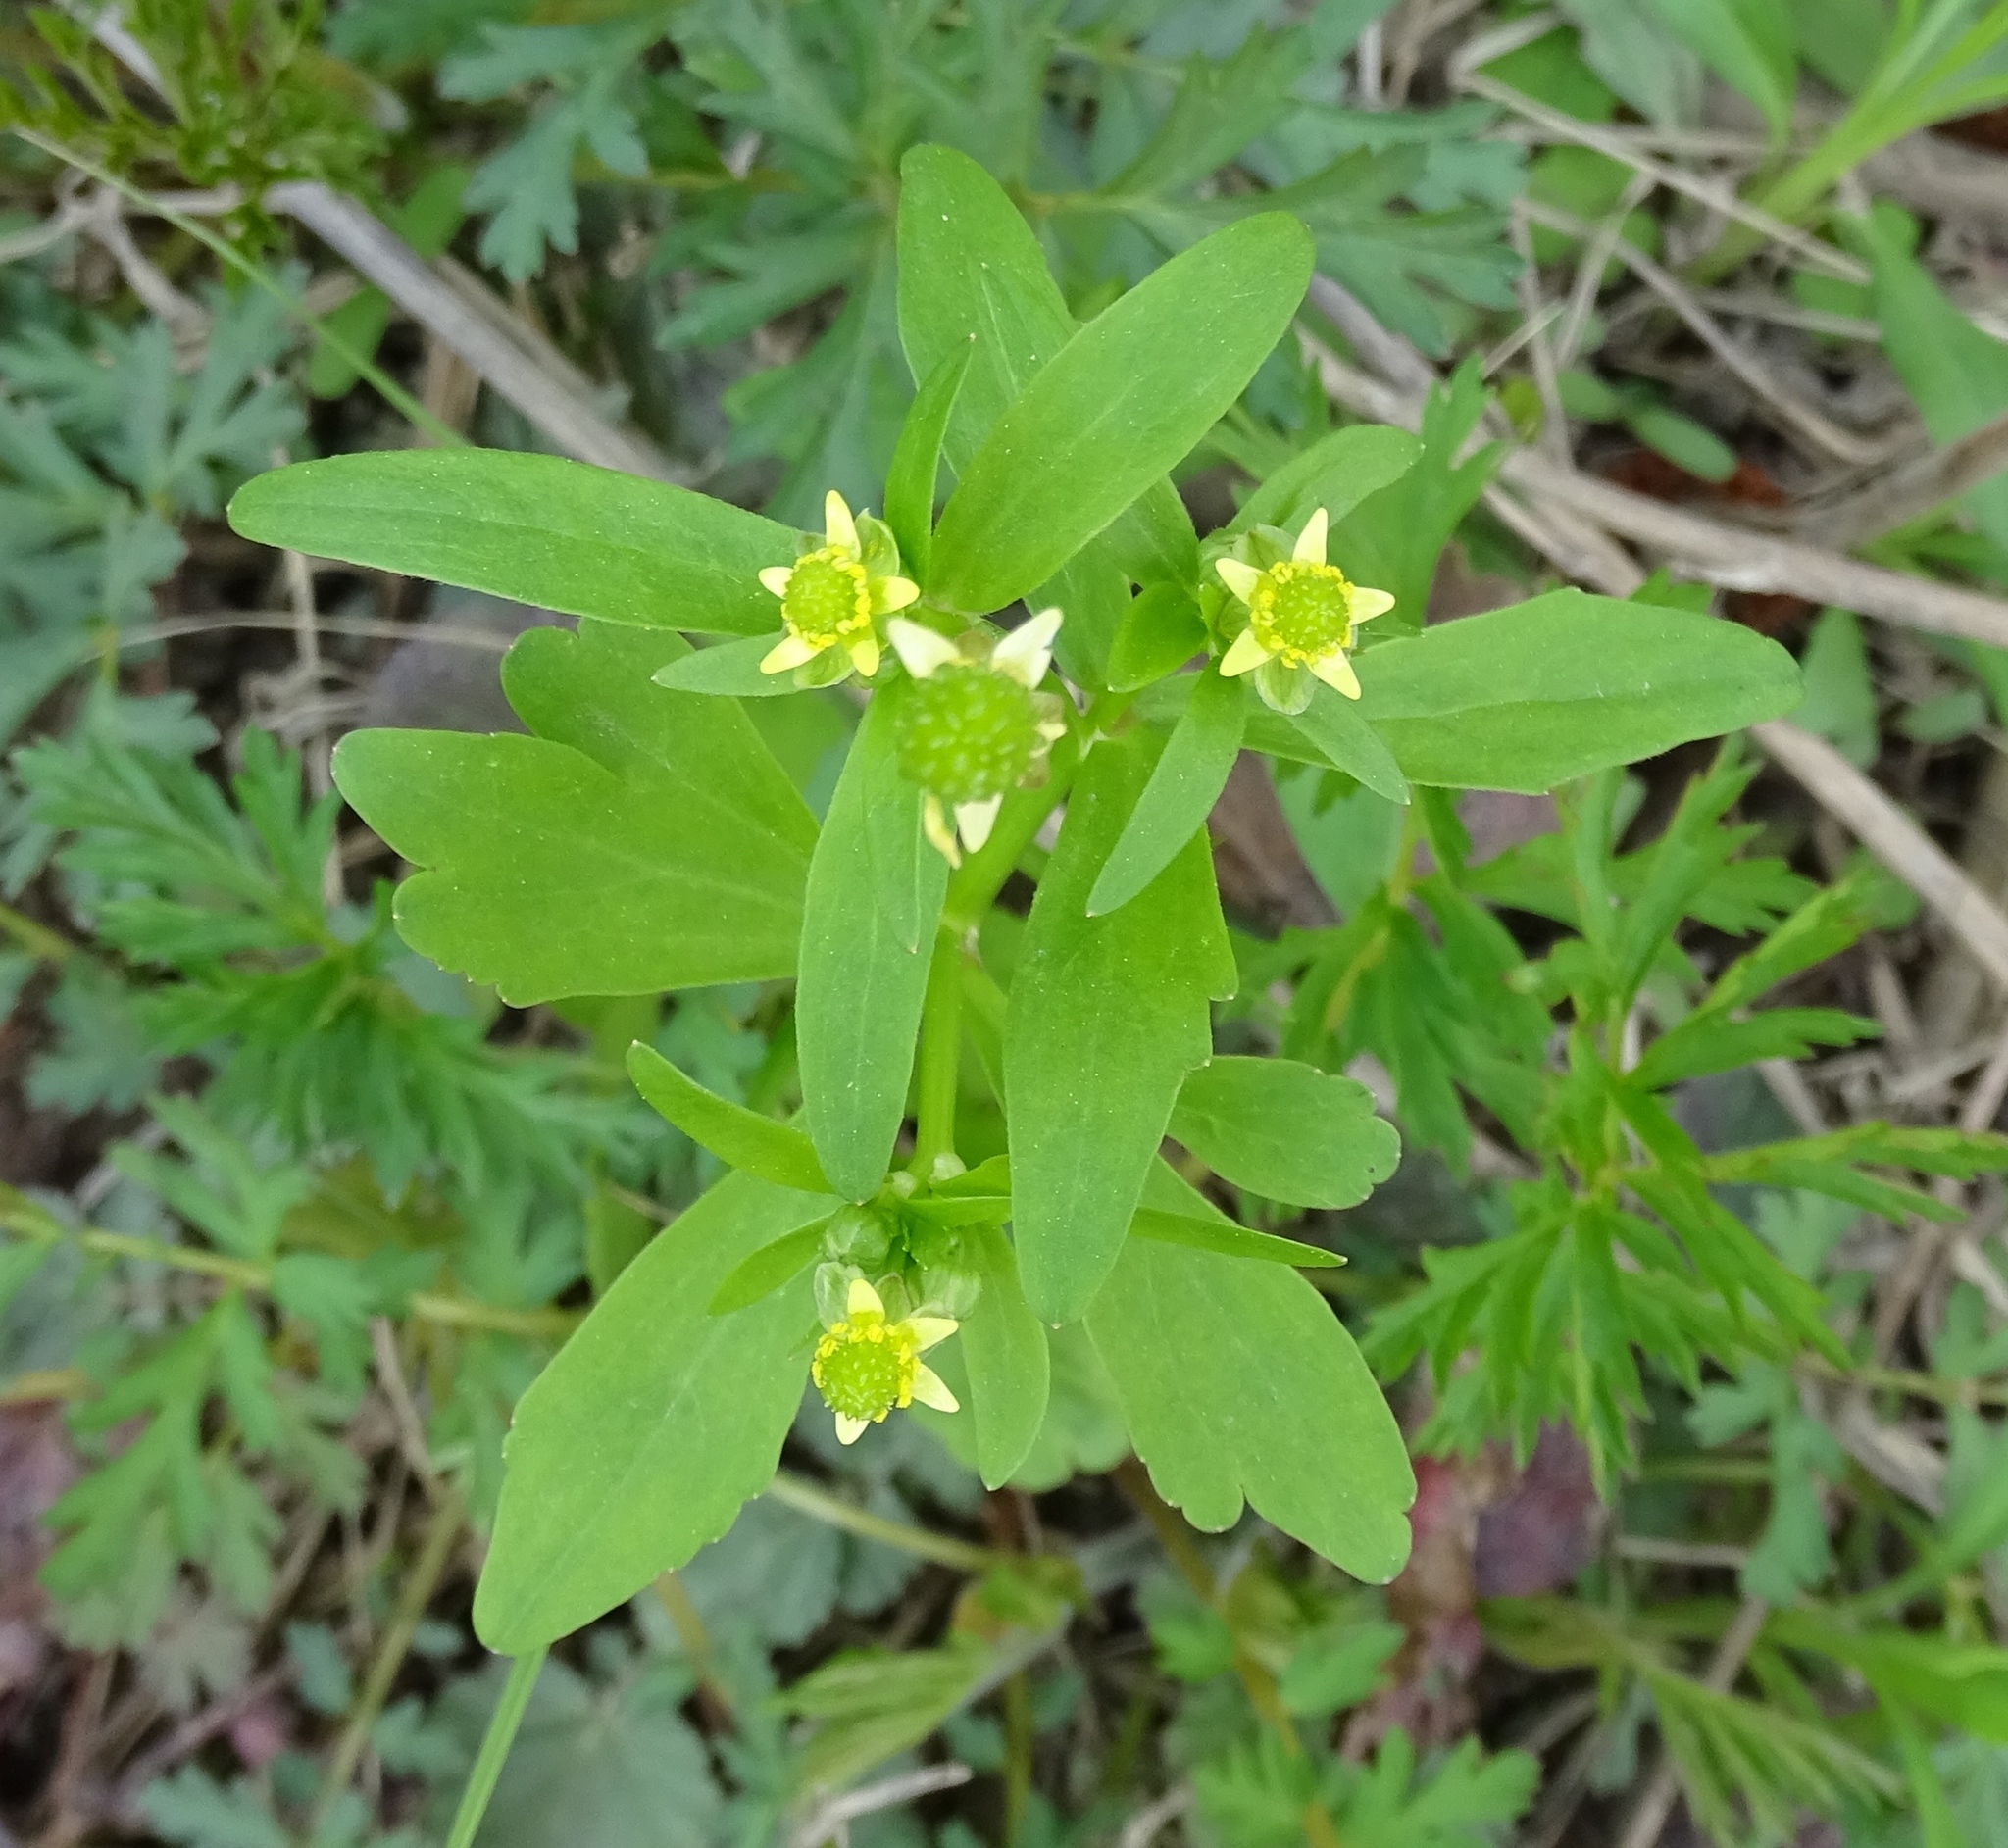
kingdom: Plantae
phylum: Tracheophyta
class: Magnoliopsida
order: Ranunculales
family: Ranunculaceae
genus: Ranunculus
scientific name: Ranunculus abortivus
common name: Early wood buttercup
